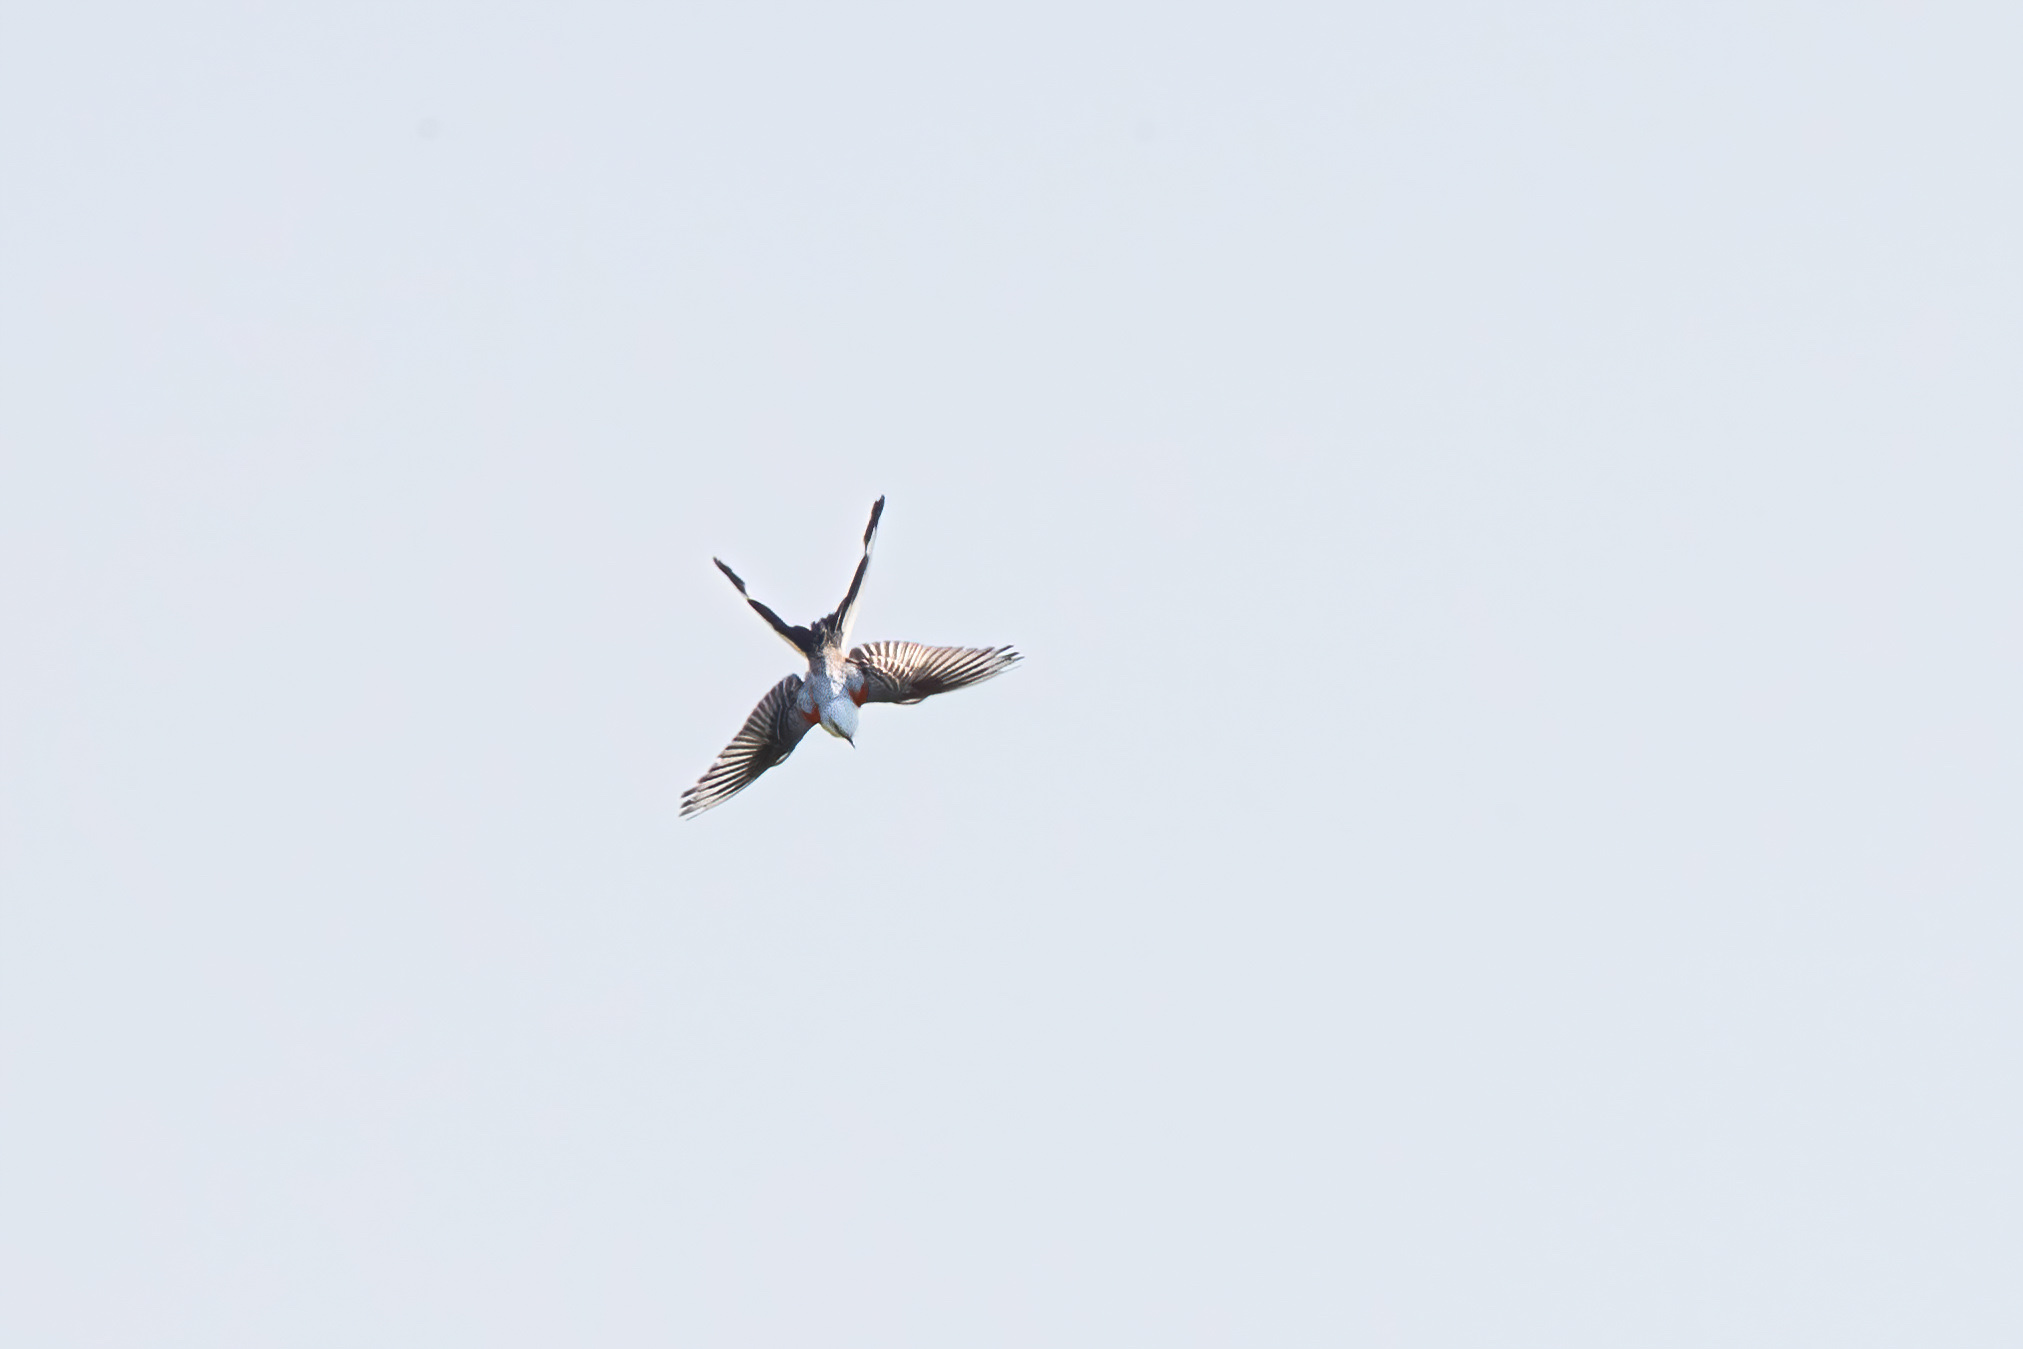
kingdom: Animalia
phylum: Chordata
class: Aves
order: Passeriformes
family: Tyrannidae
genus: Tyrannus
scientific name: Tyrannus forficatus
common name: Scissor-tailed flycatcher
